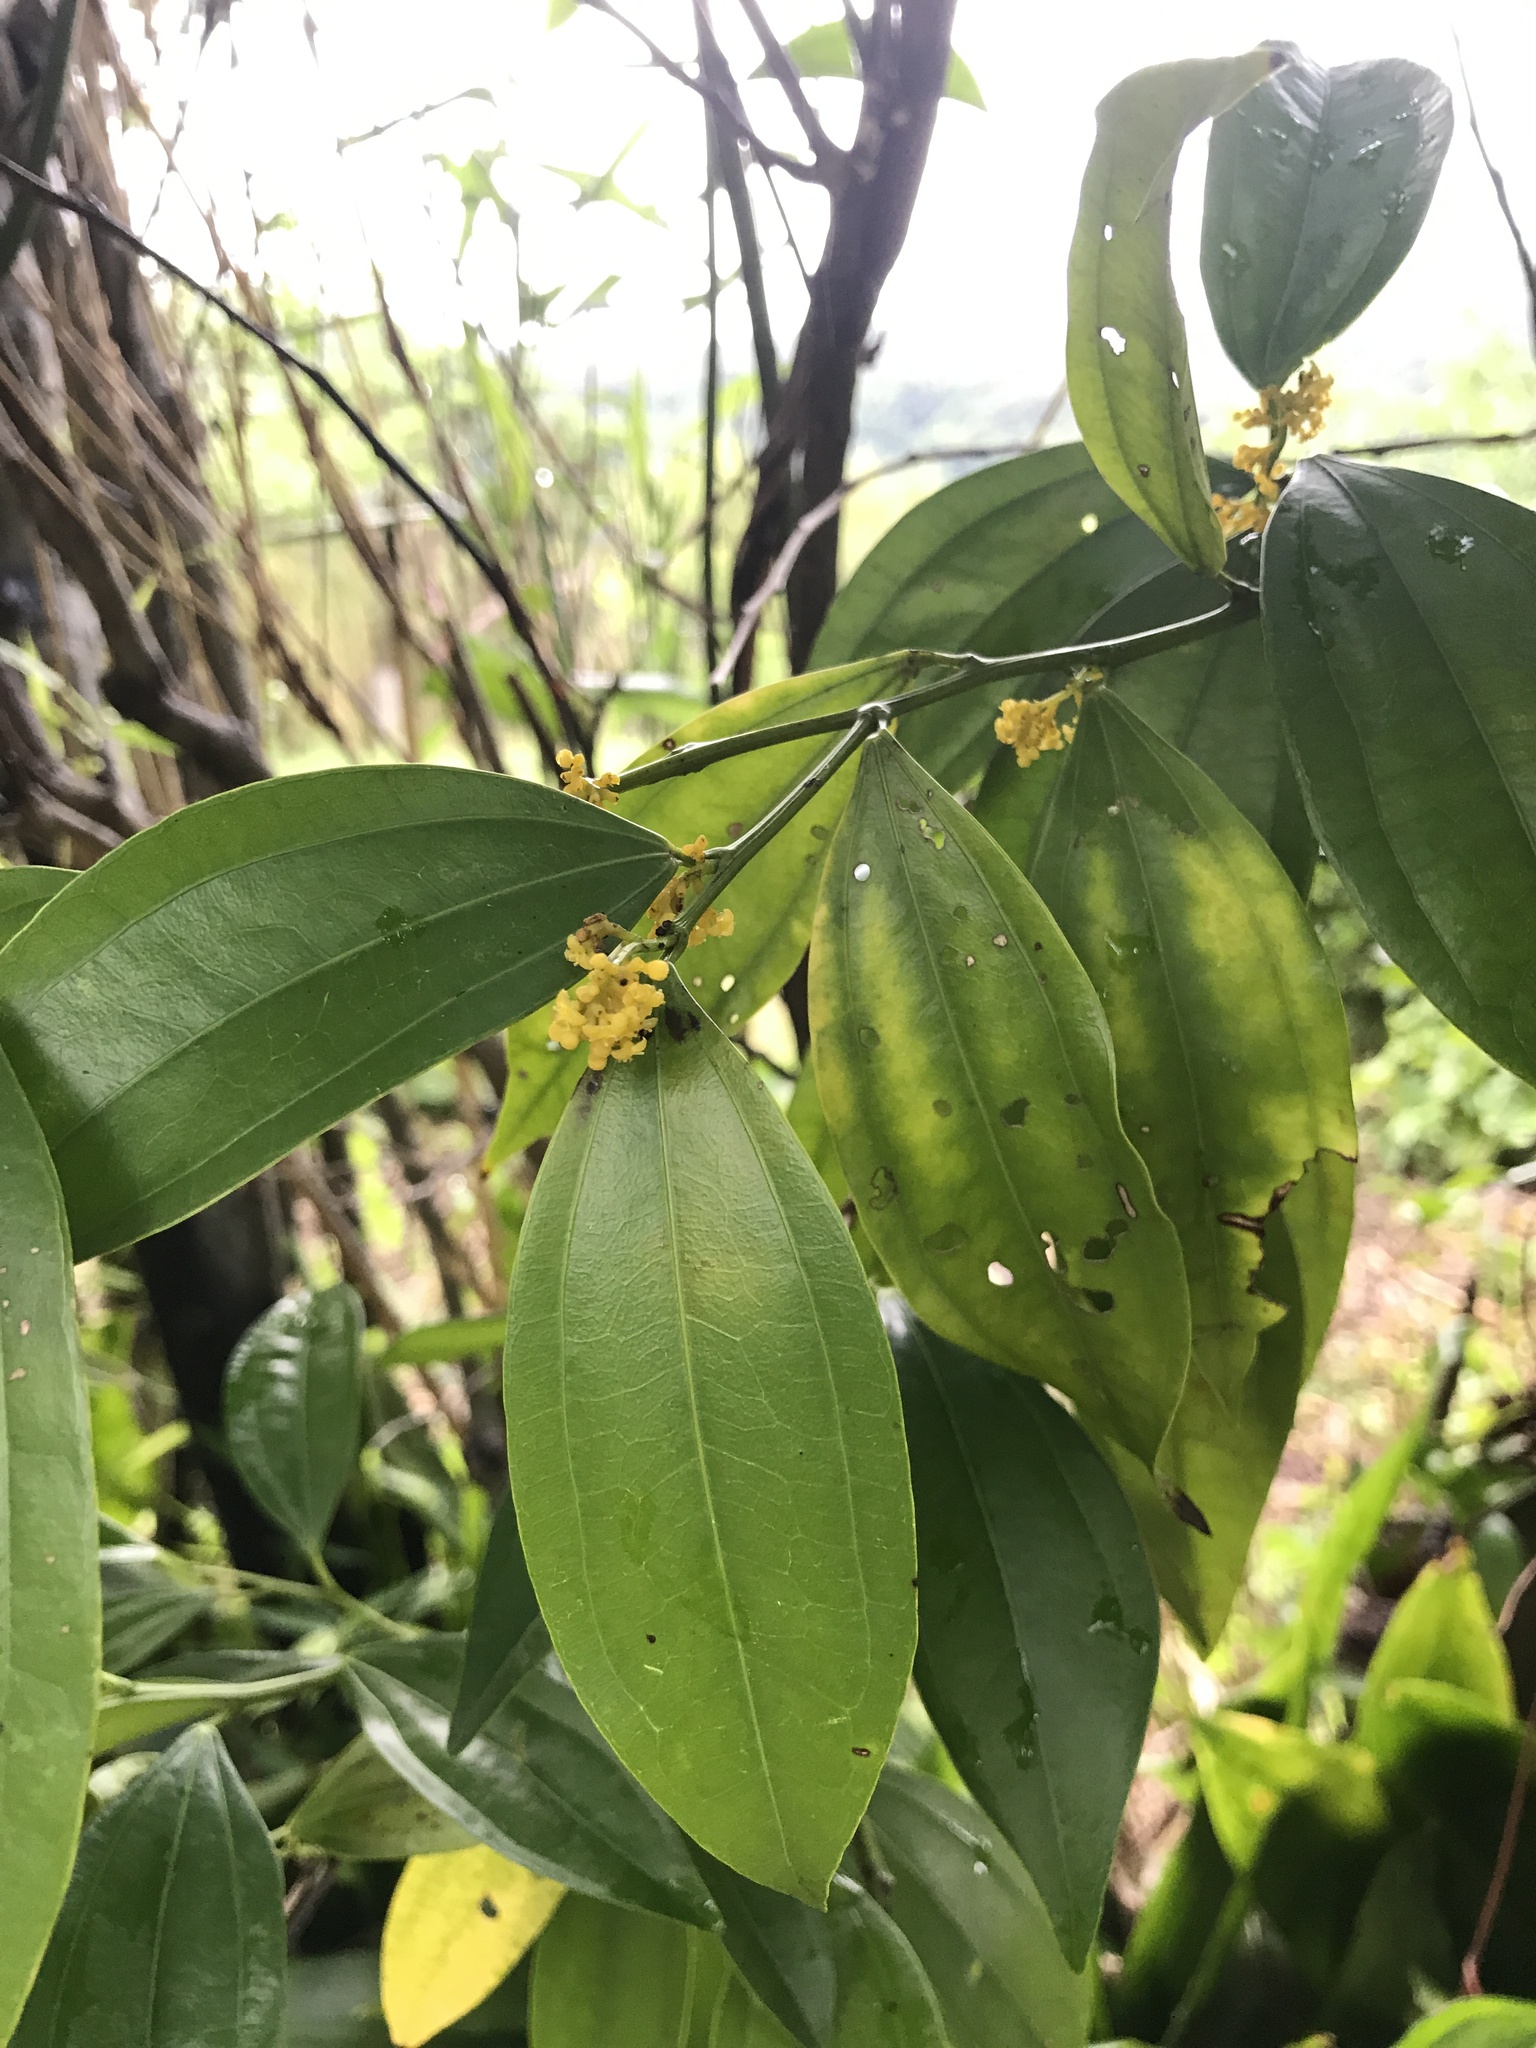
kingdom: Plantae
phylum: Tracheophyta
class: Magnoliopsida
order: Ranunculales
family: Menispermaceae
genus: Cocculus
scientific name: Cocculus laurifolius
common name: Laurel-leaf snailseed
